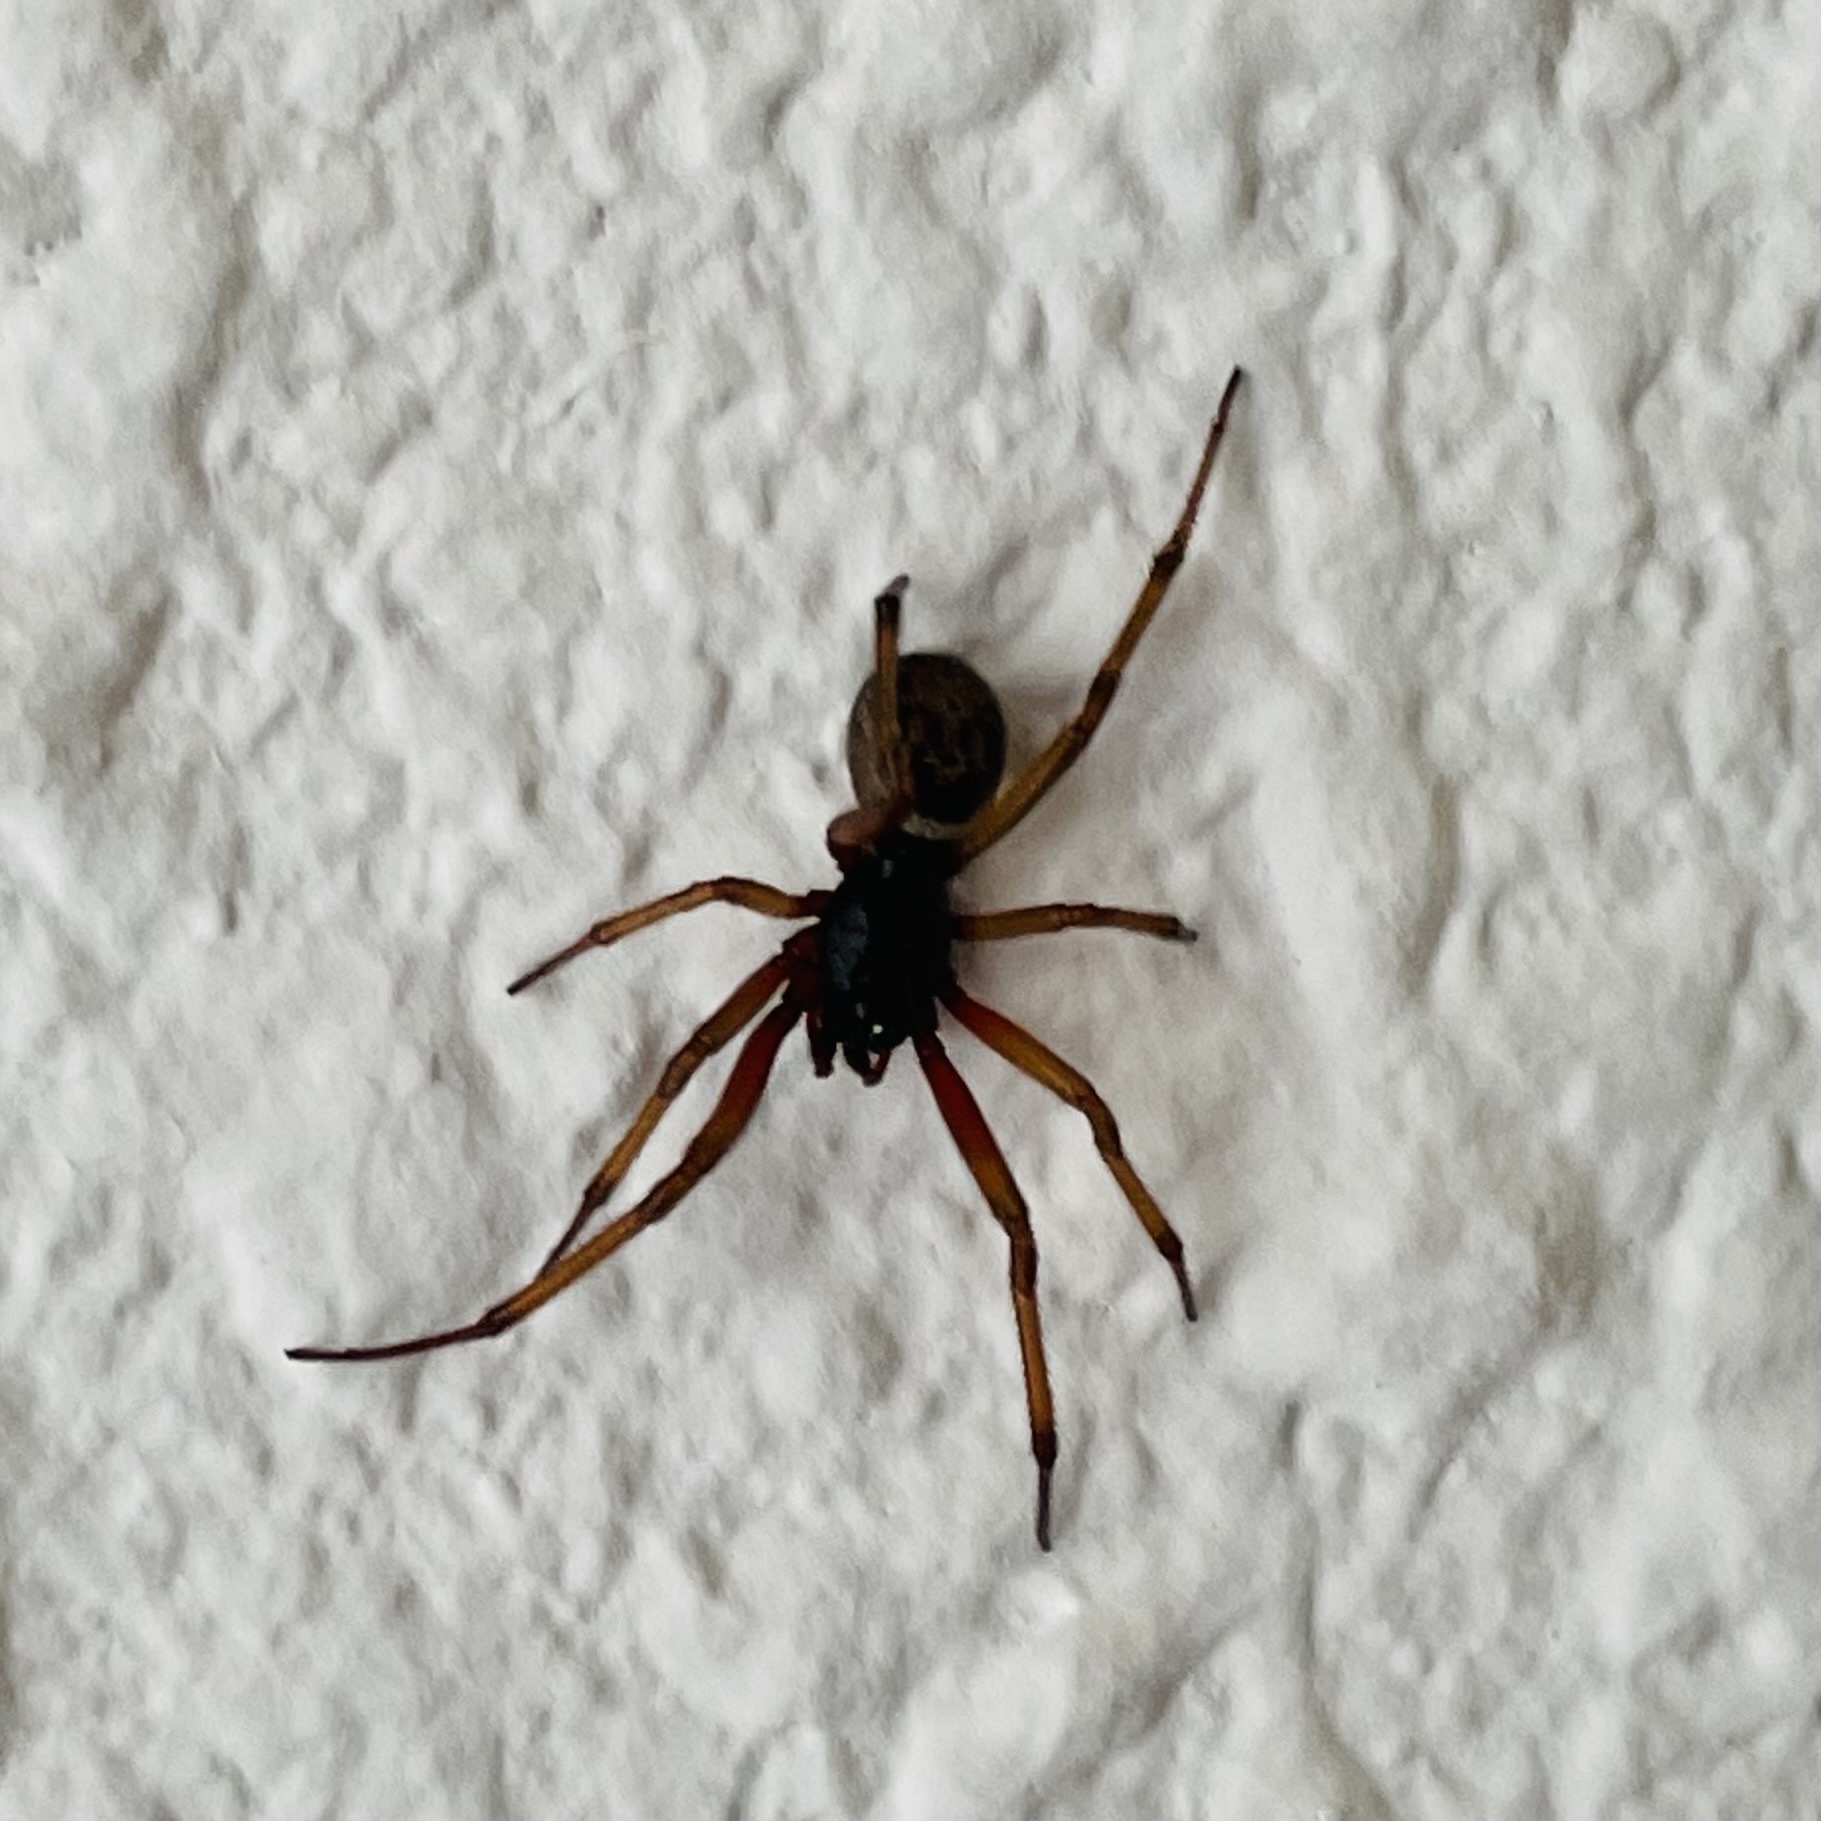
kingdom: Animalia
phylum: Arthropoda
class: Arachnida
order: Araneae
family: Theridiidae
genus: Steatoda
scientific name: Steatoda nobilis
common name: Cobweb weaver
